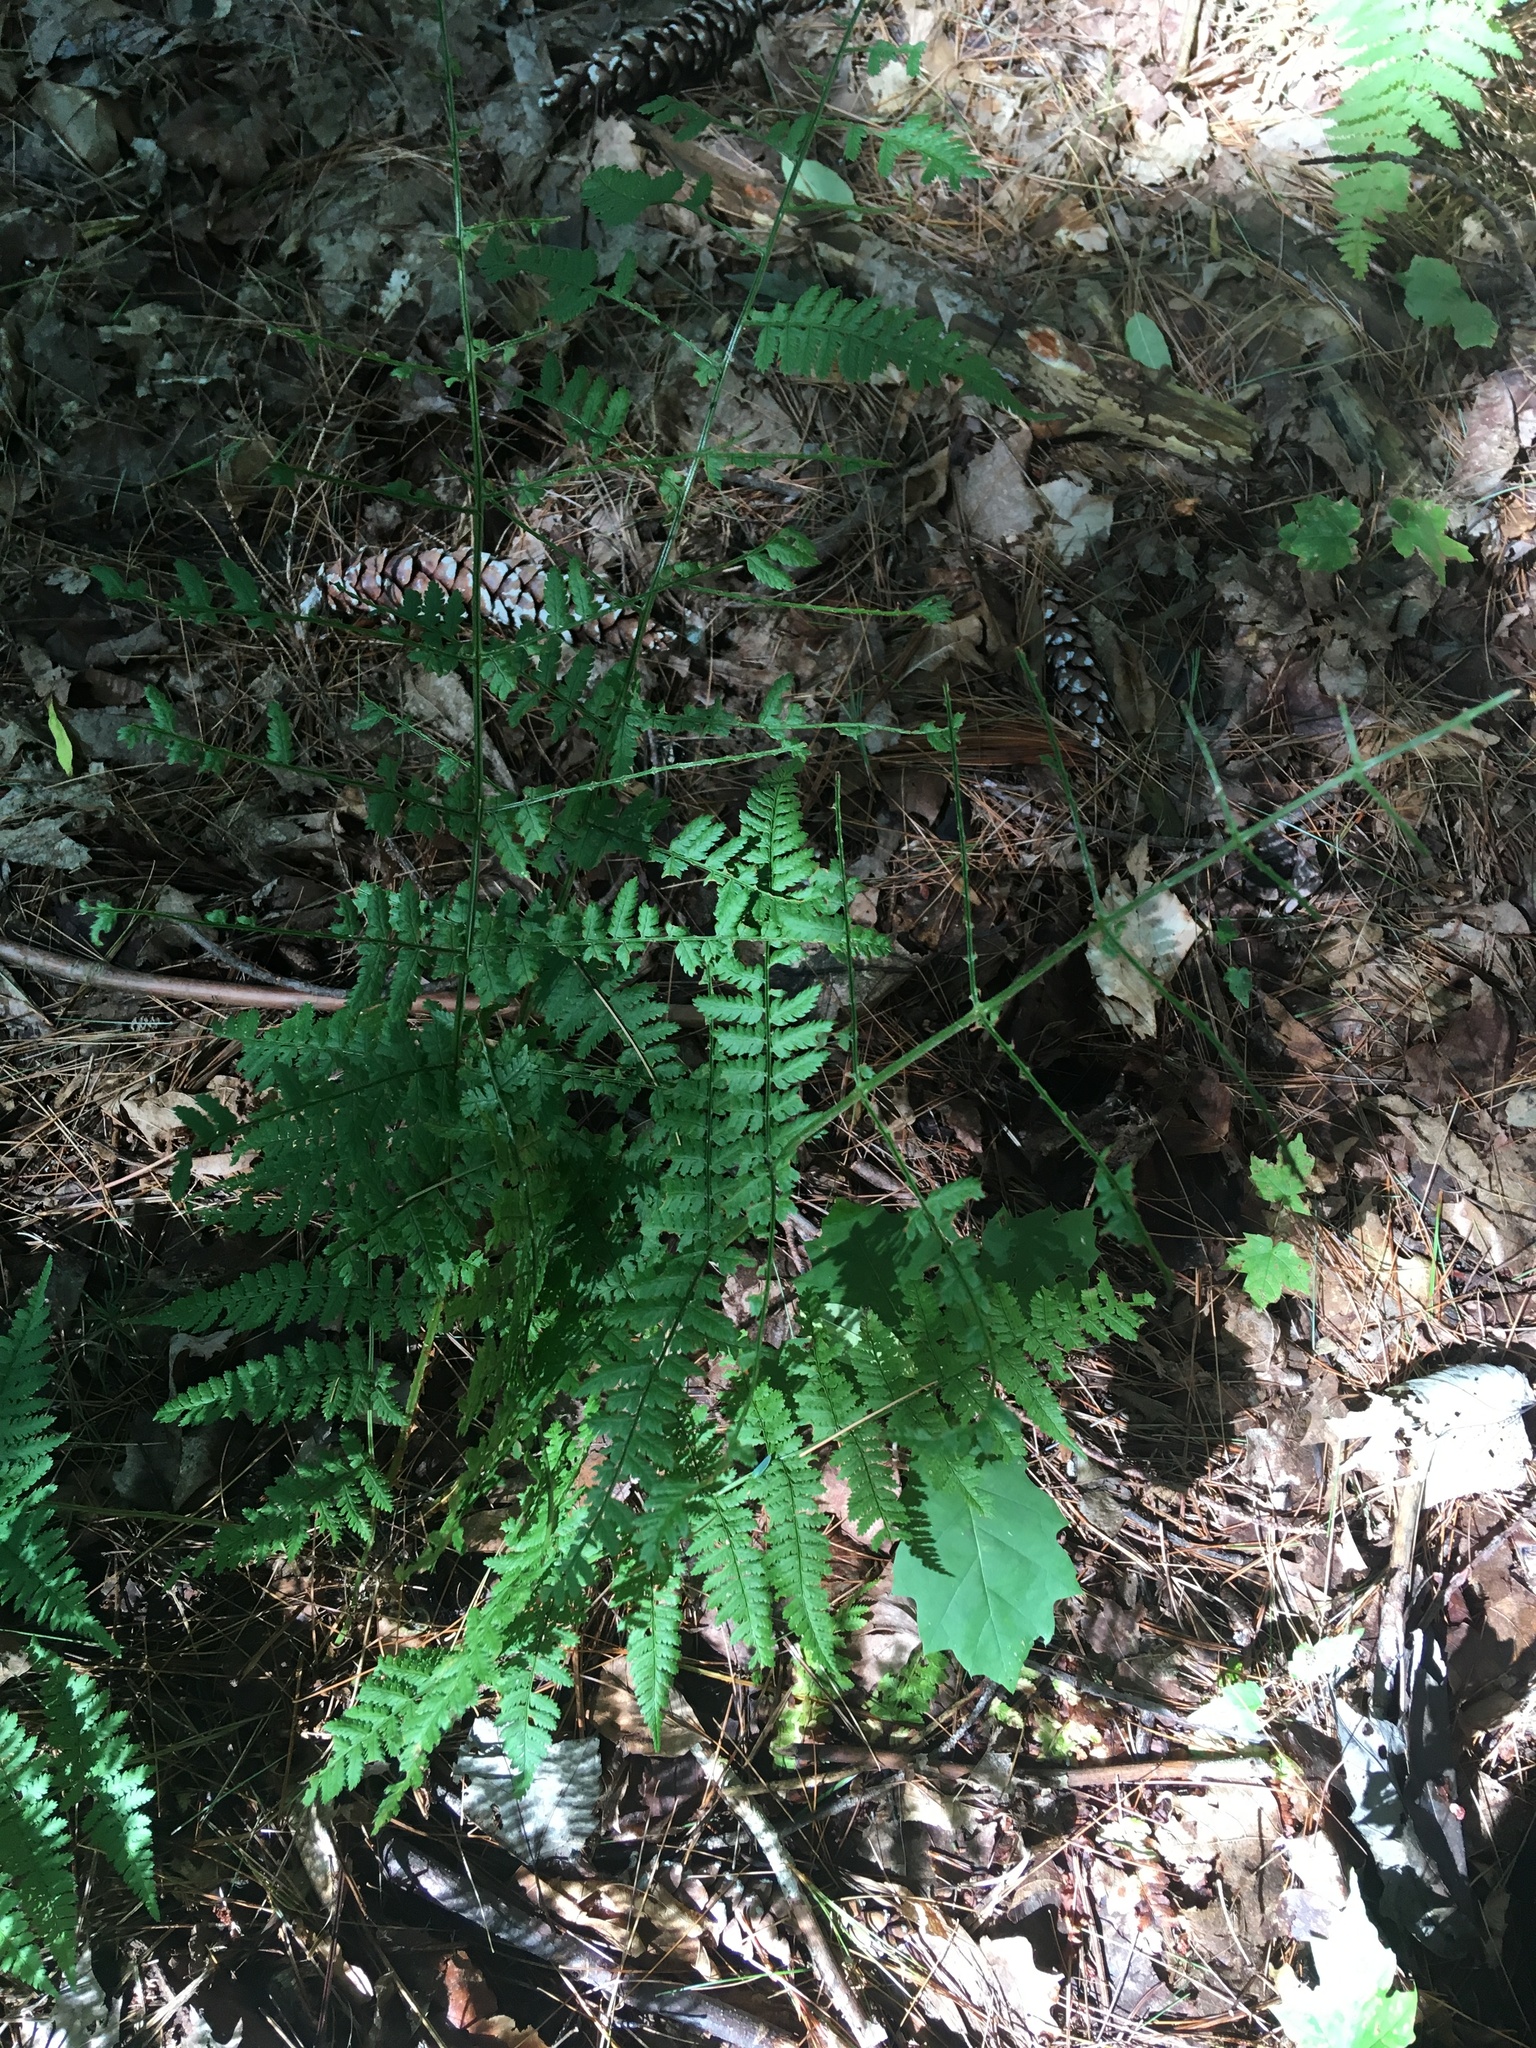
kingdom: Plantae
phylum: Tracheophyta
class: Polypodiopsida
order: Polypodiales
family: Thelypteridaceae
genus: Amauropelta
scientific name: Amauropelta noveboracensis
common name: New york fern
